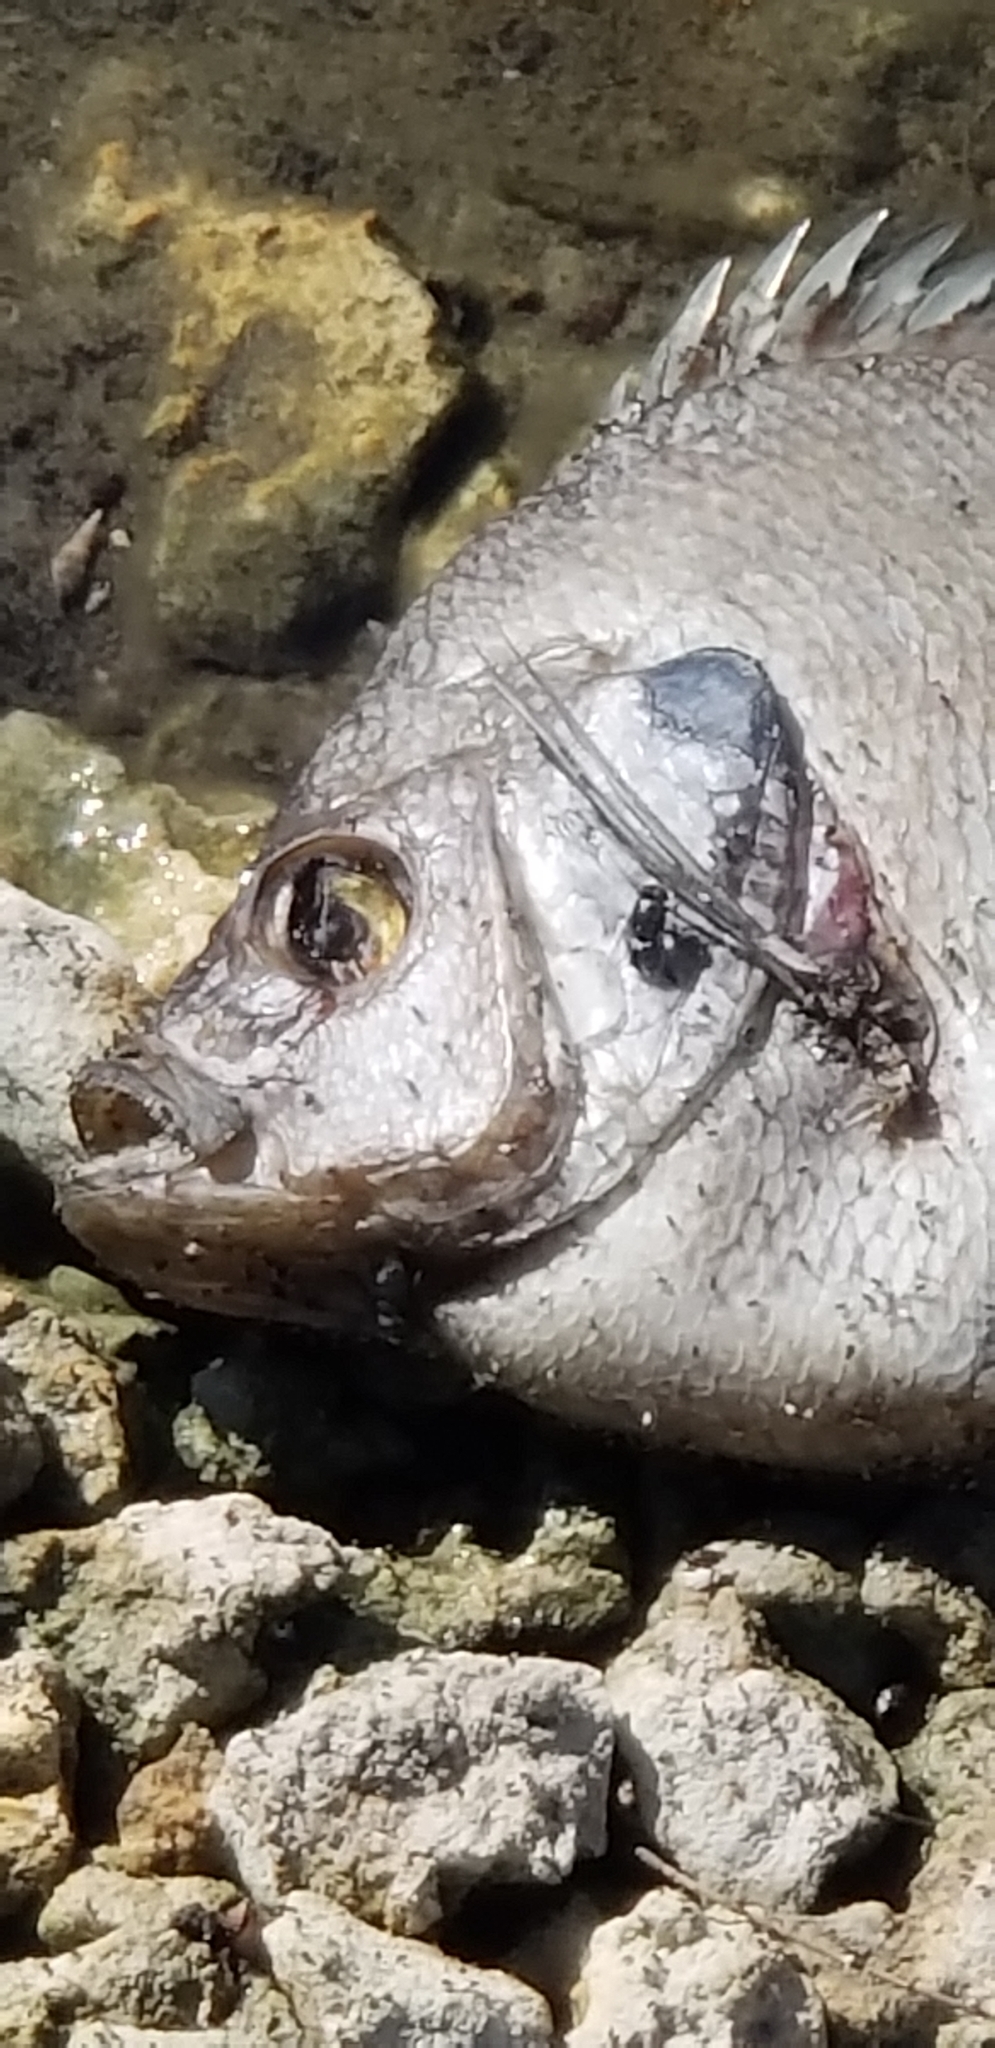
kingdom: Animalia
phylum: Chordata
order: Perciformes
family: Centrarchidae
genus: Lepomis
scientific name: Lepomis
